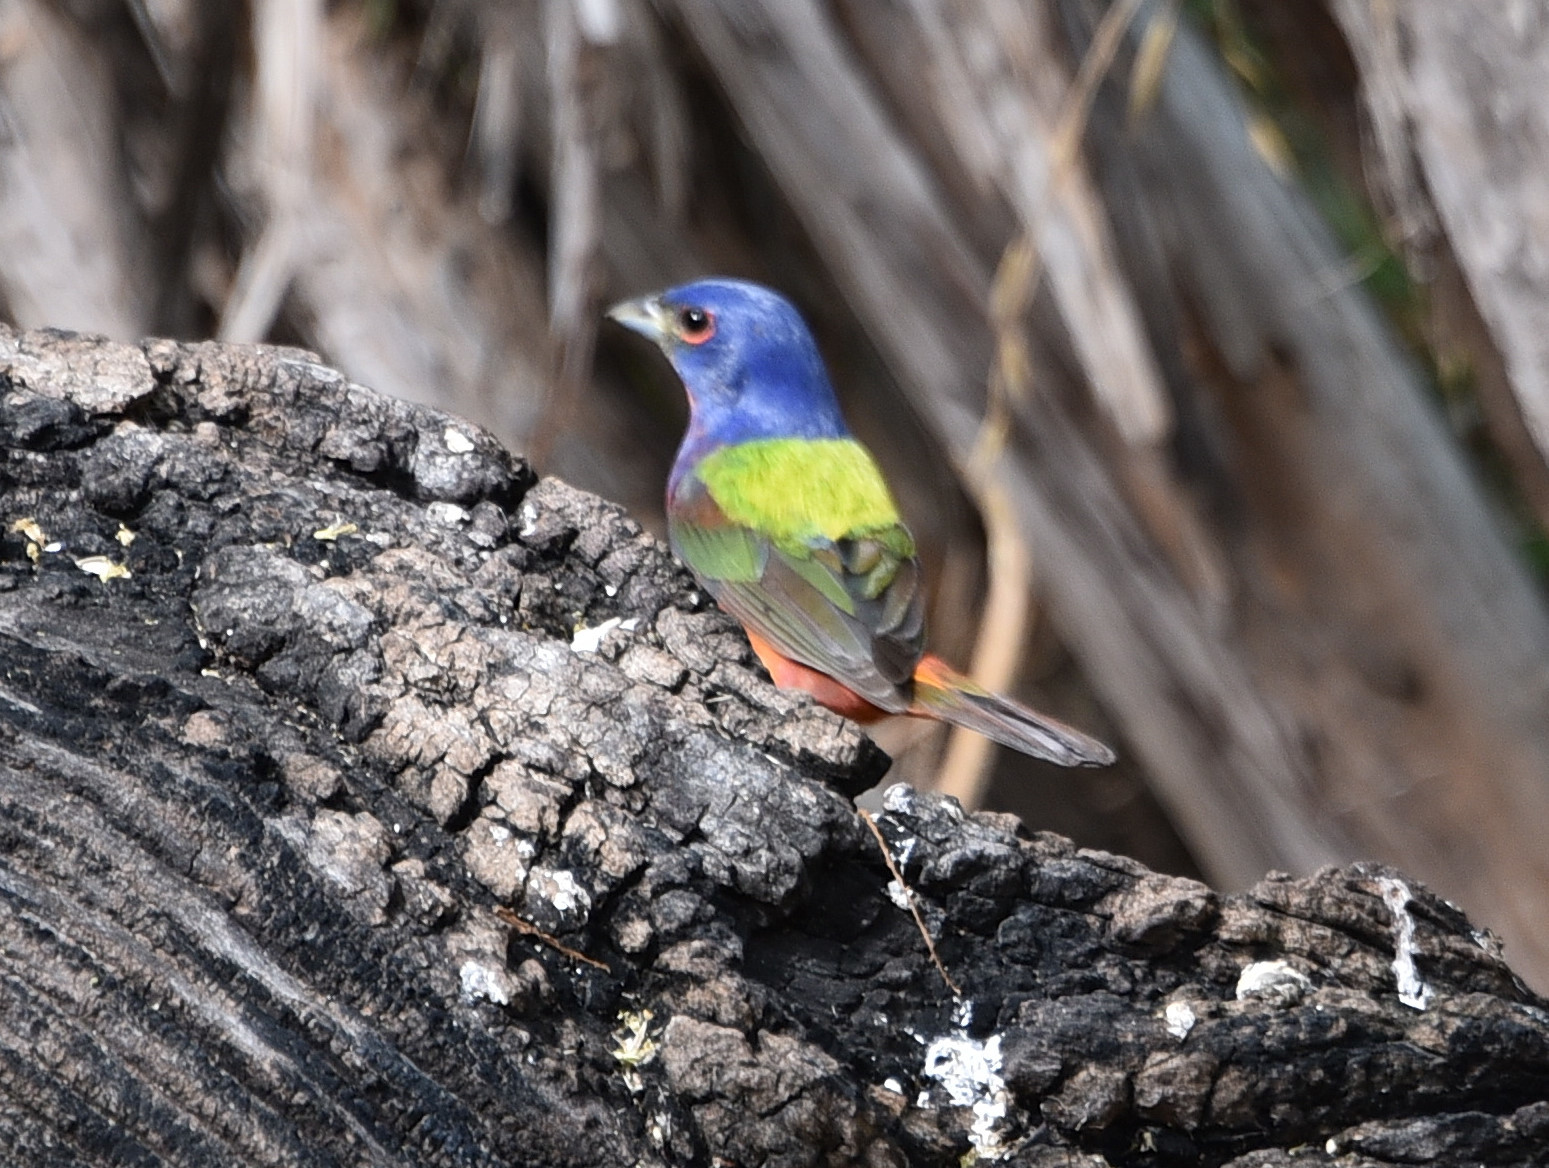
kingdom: Animalia
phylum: Chordata
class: Aves
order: Passeriformes
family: Cardinalidae
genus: Passerina
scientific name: Passerina ciris
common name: Painted bunting
